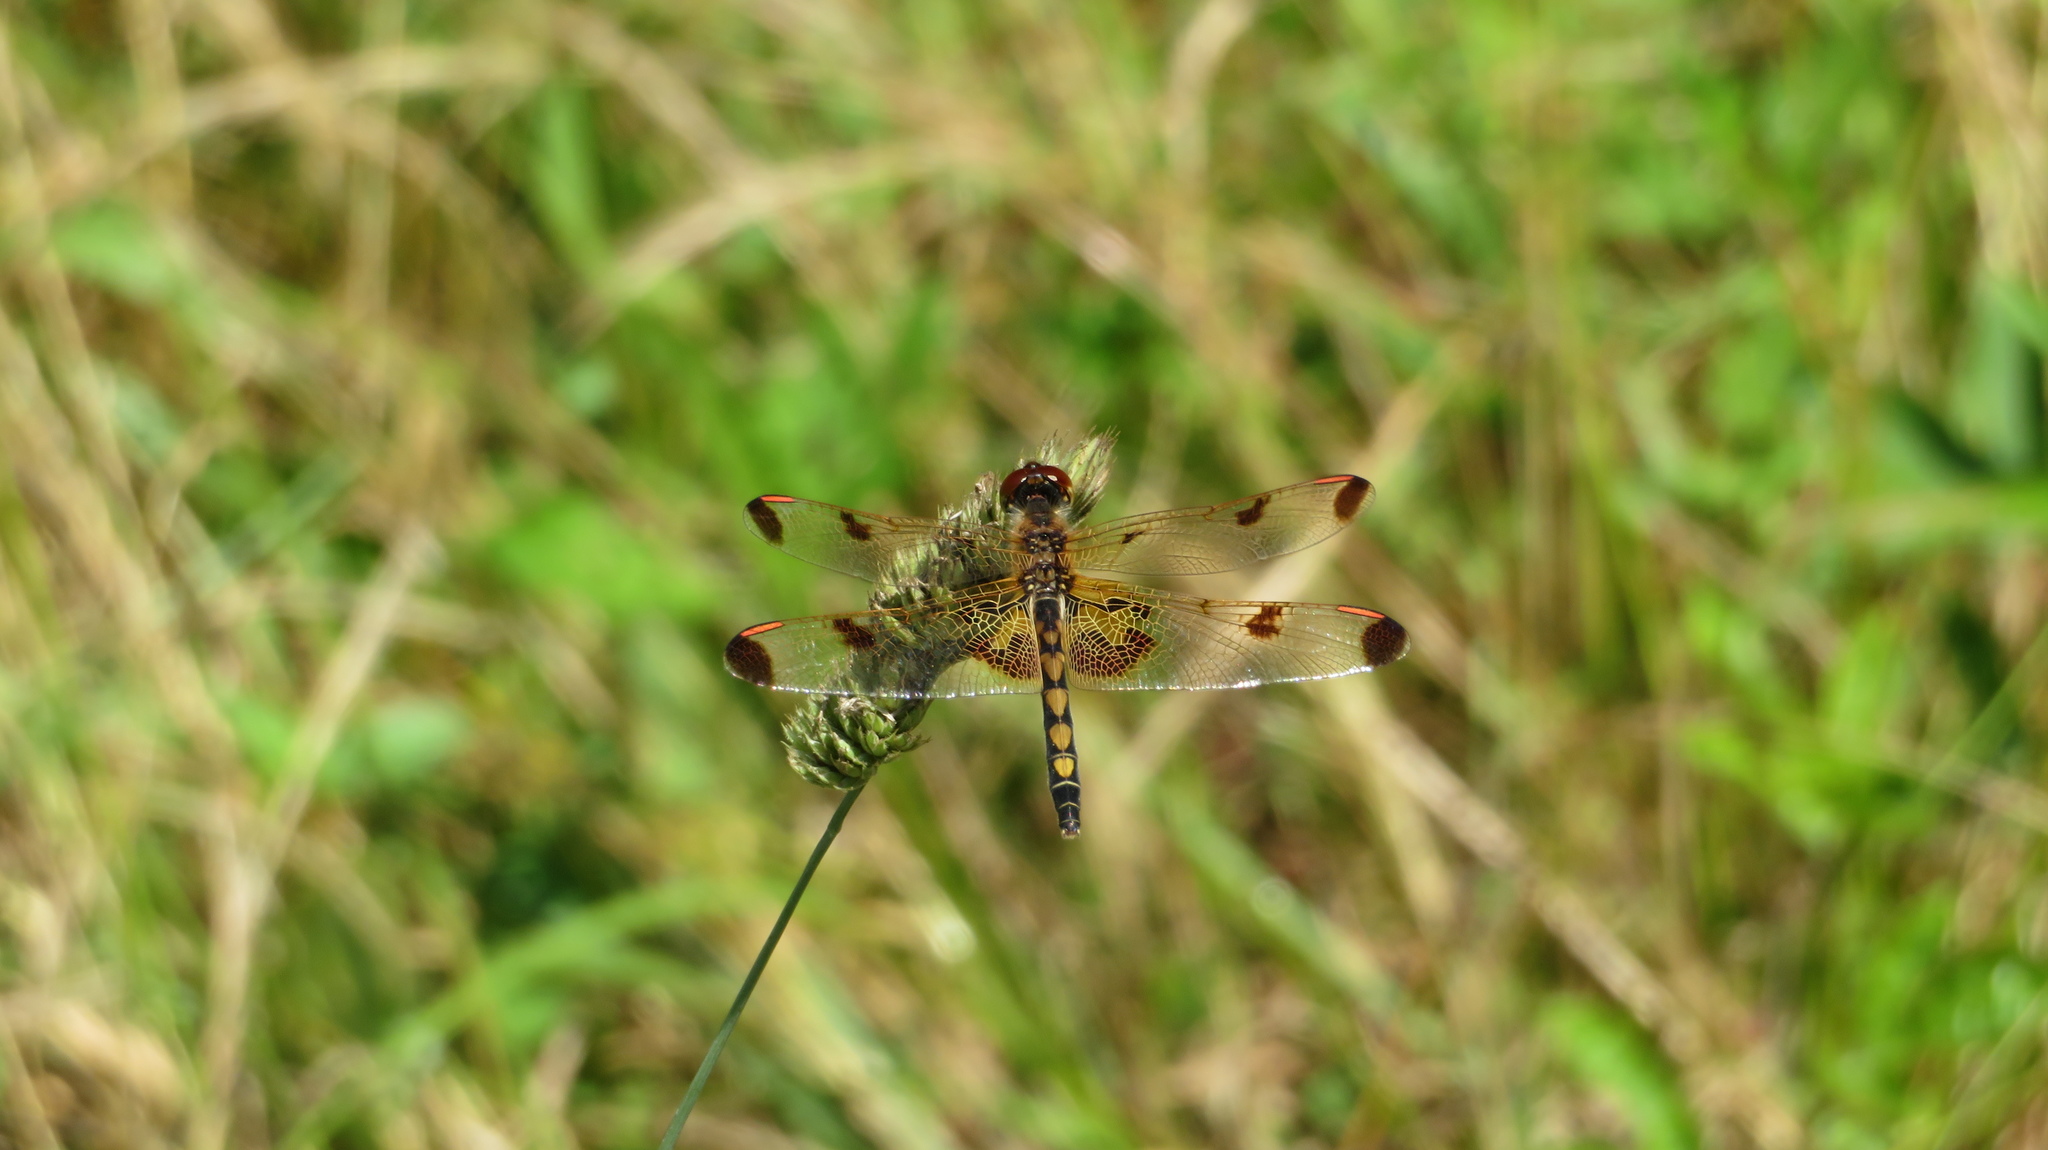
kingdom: Animalia
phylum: Arthropoda
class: Insecta
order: Odonata
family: Libellulidae
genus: Celithemis
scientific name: Celithemis elisa
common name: Calico pennant
